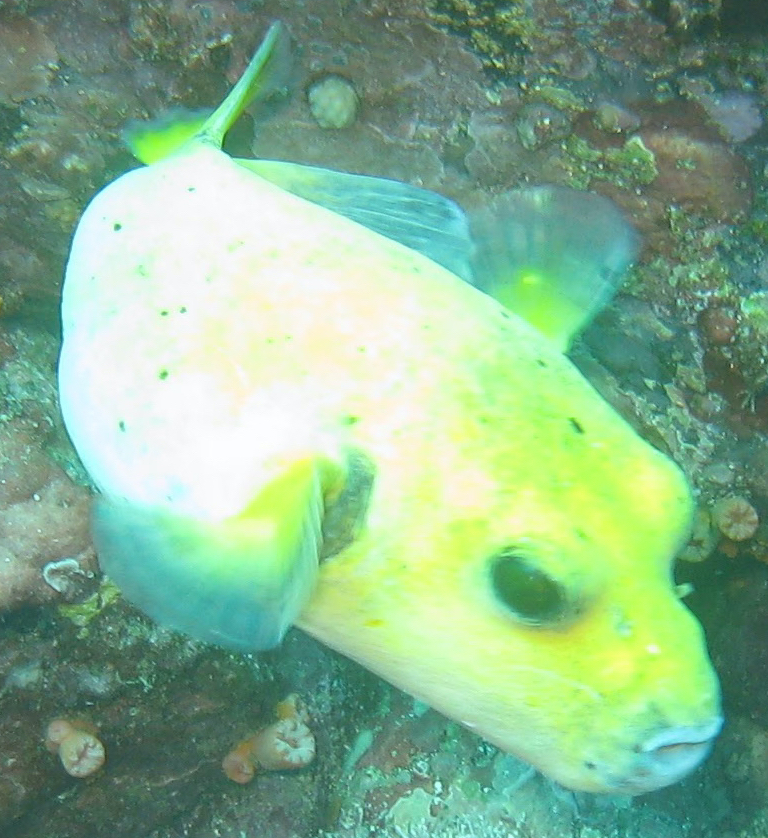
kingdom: Animalia
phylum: Chordata
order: Tetraodontiformes
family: Tetraodontidae
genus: Arothron
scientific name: Arothron meleagris
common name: Guinea-fowl pufferfish
